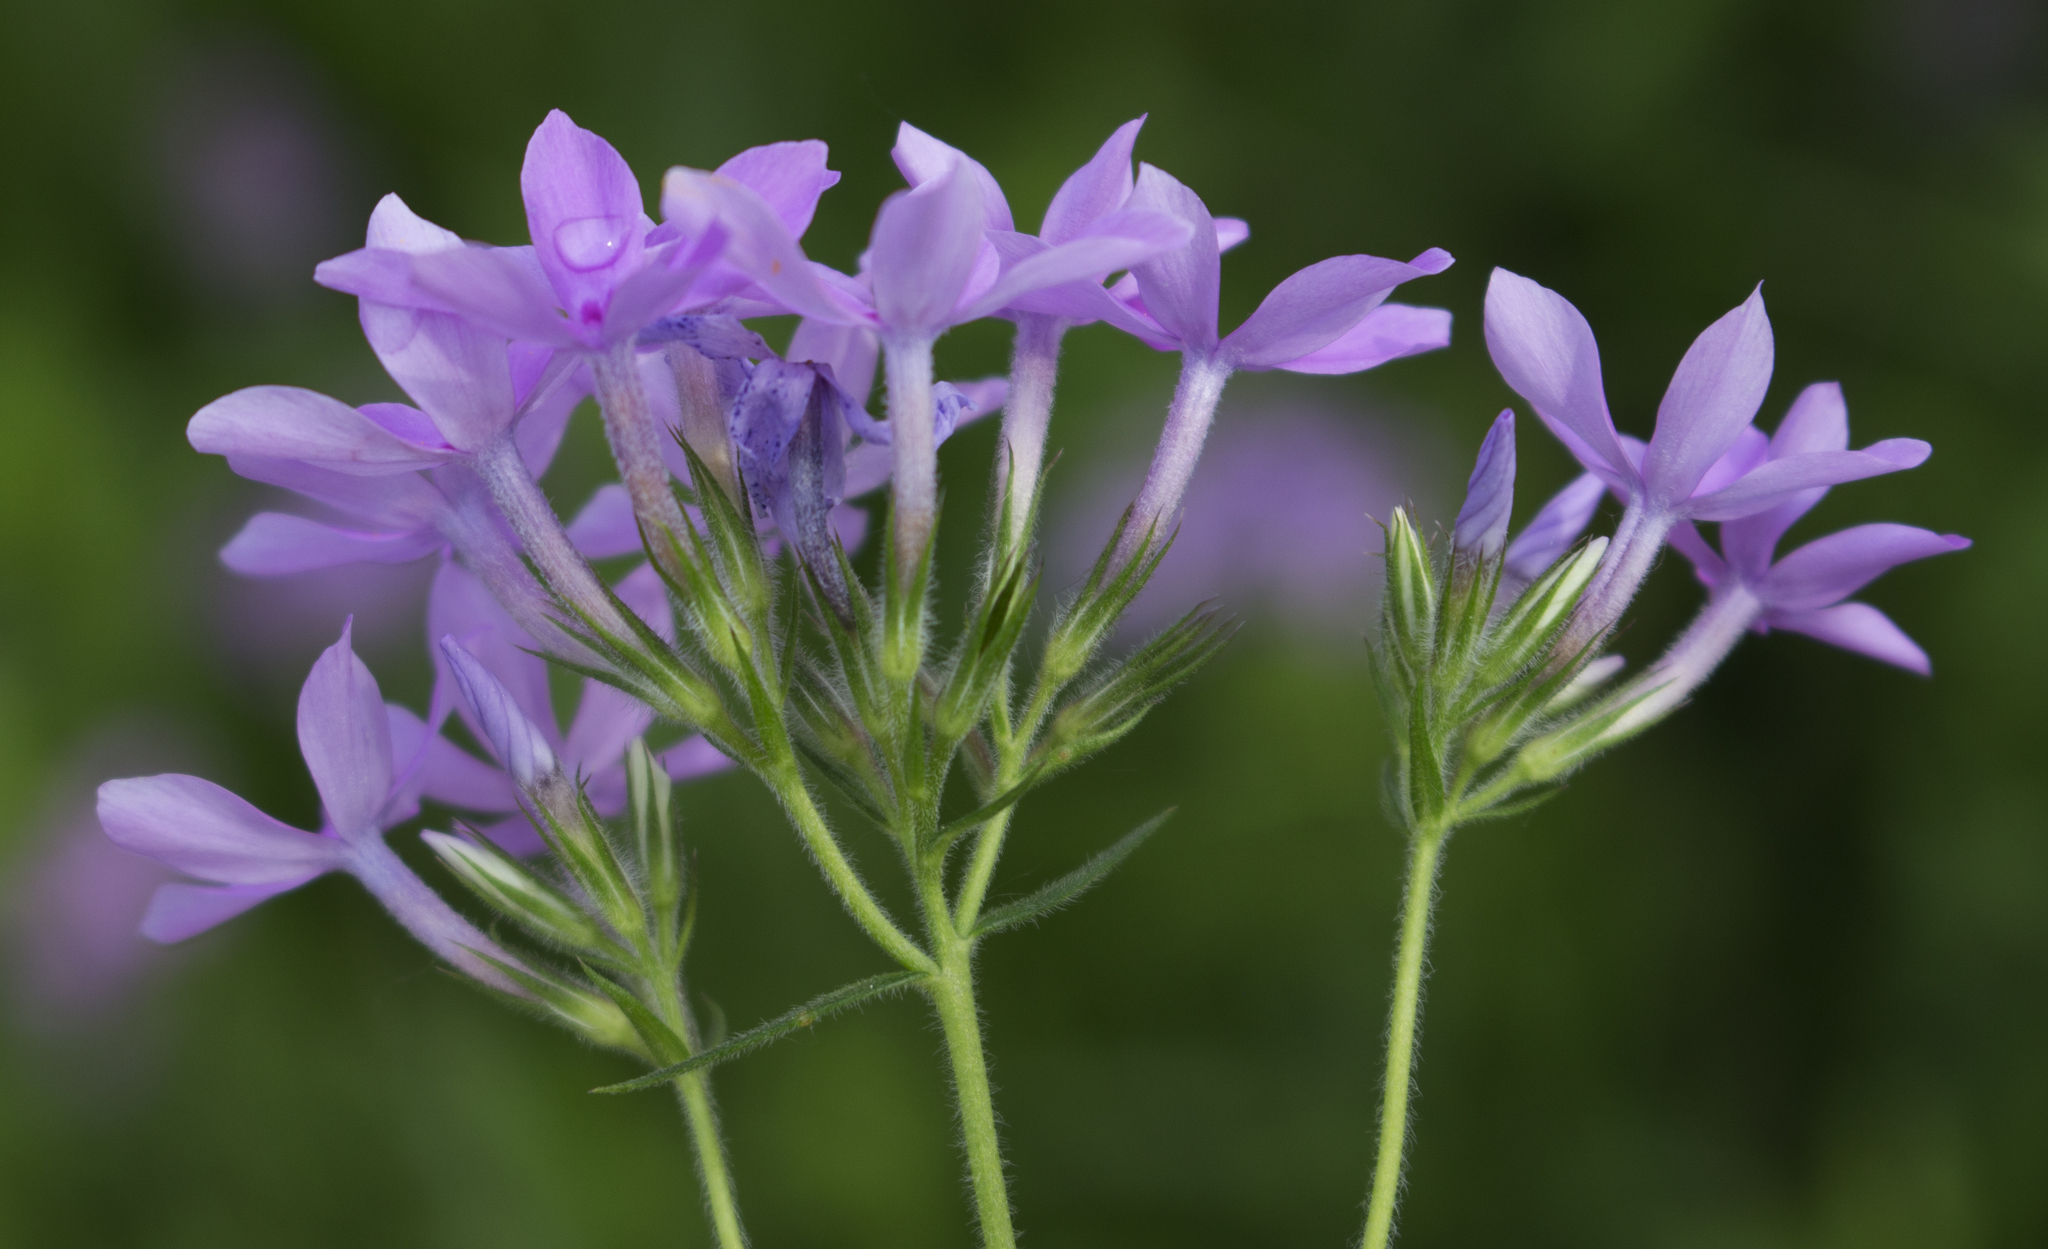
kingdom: Plantae
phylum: Tracheophyta
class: Magnoliopsida
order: Ericales
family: Polemoniaceae
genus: Phlox
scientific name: Phlox pilosa
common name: Prairie phlox
